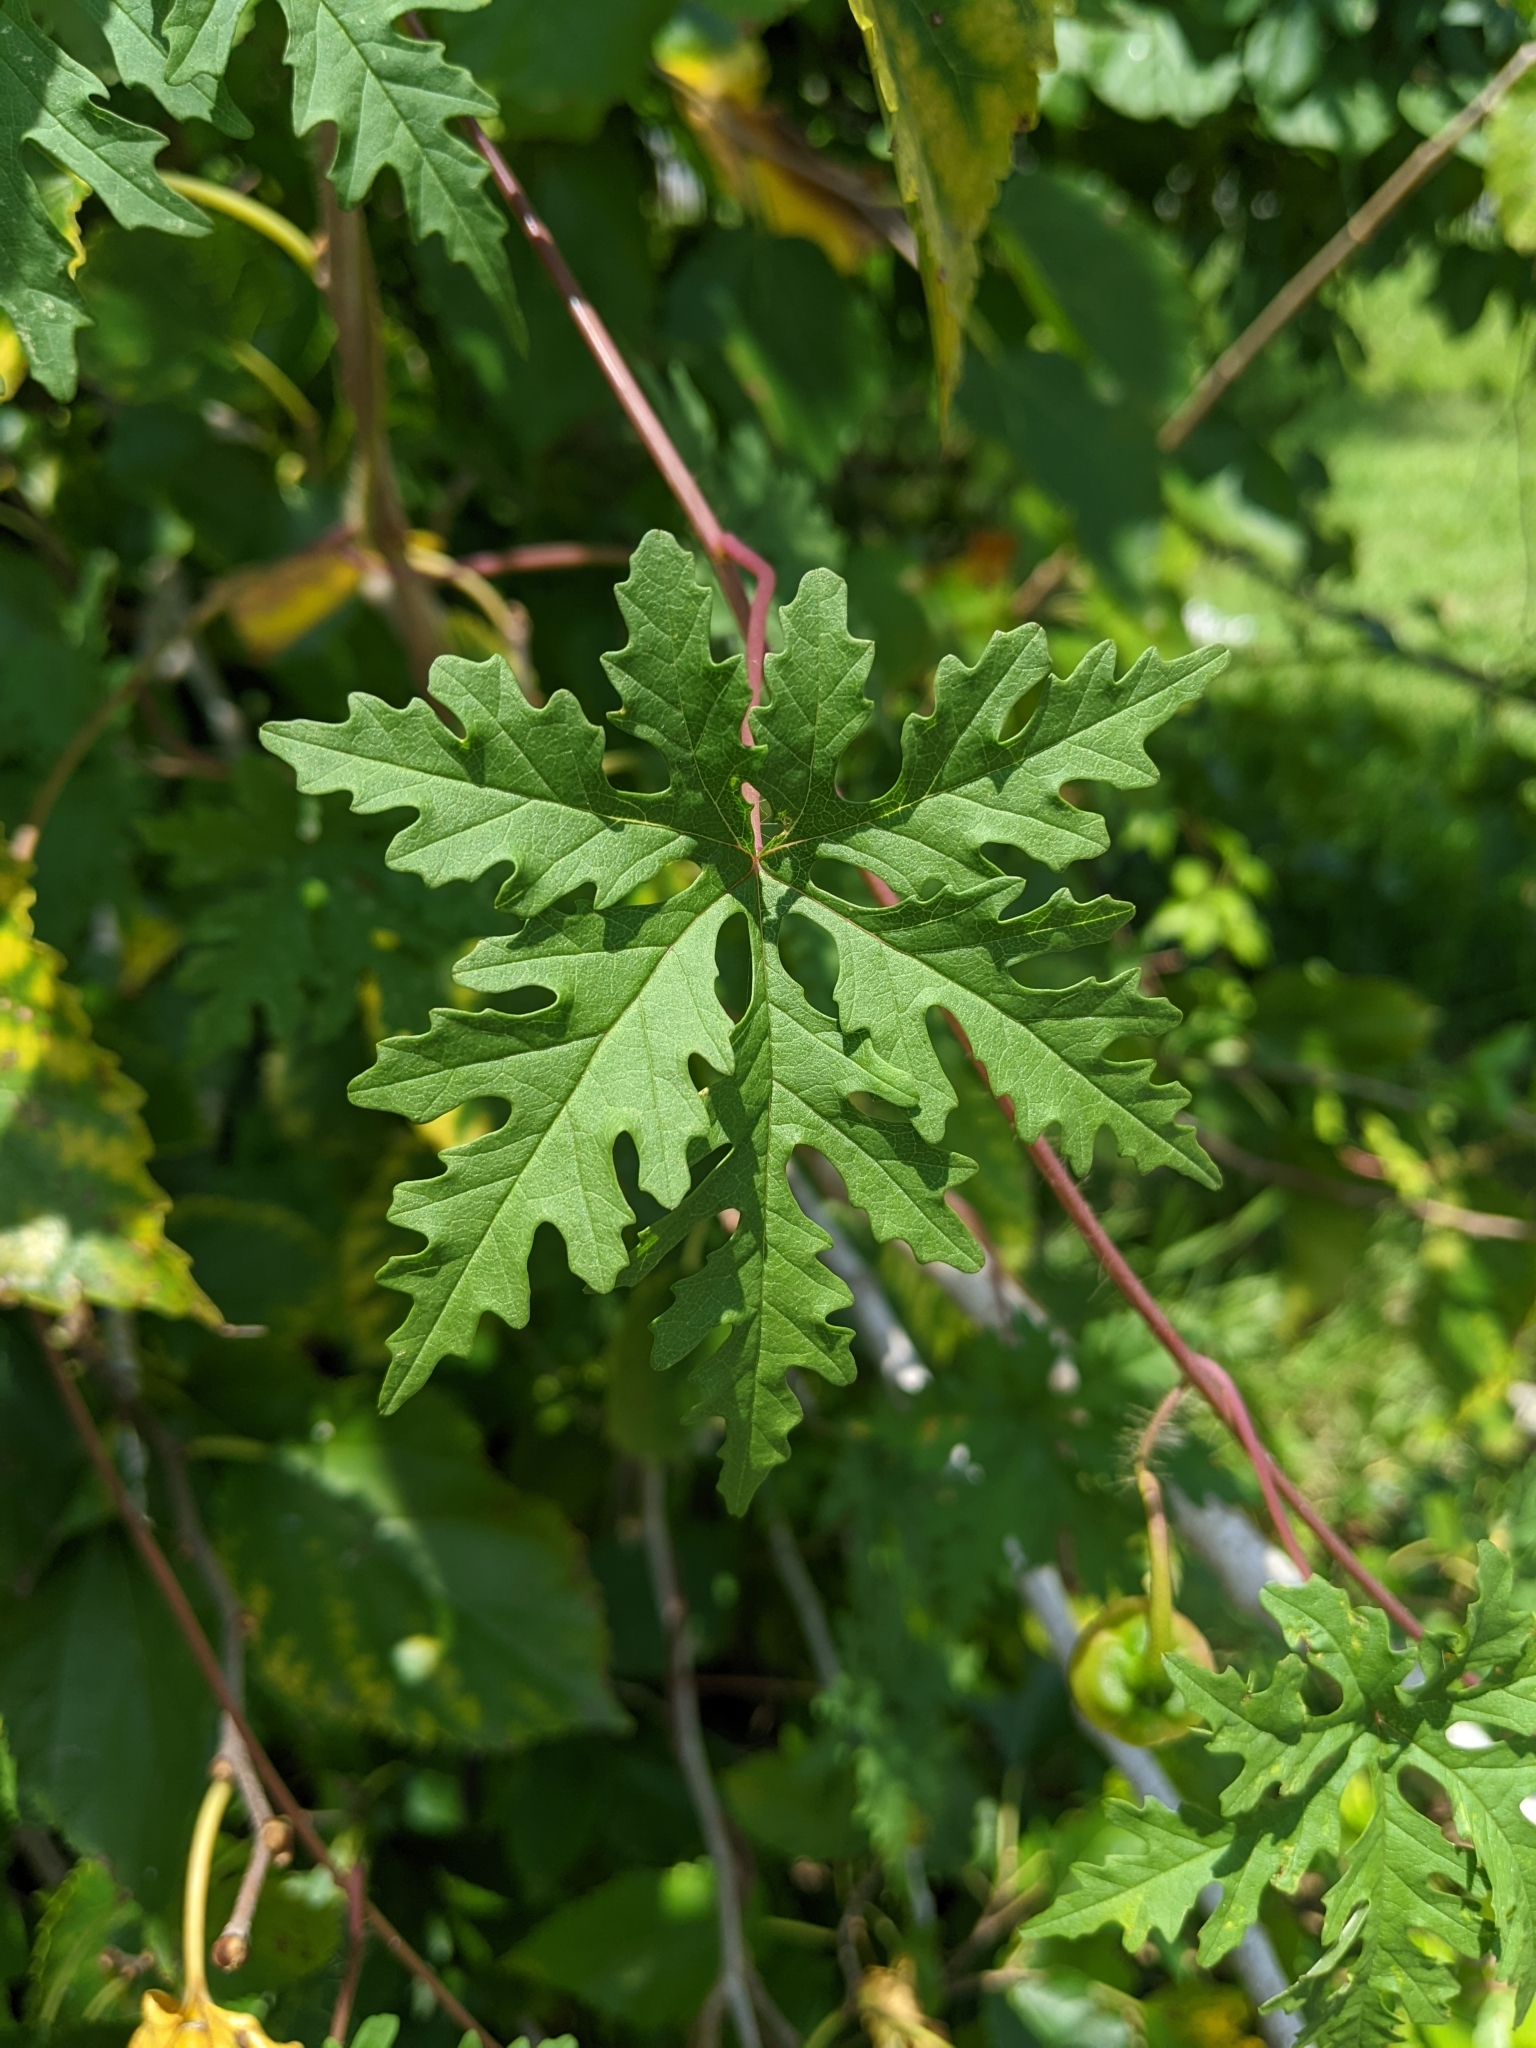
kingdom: Plantae
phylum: Tracheophyta
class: Magnoliopsida
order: Solanales
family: Convolvulaceae
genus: Distimake
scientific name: Distimake dissectus
